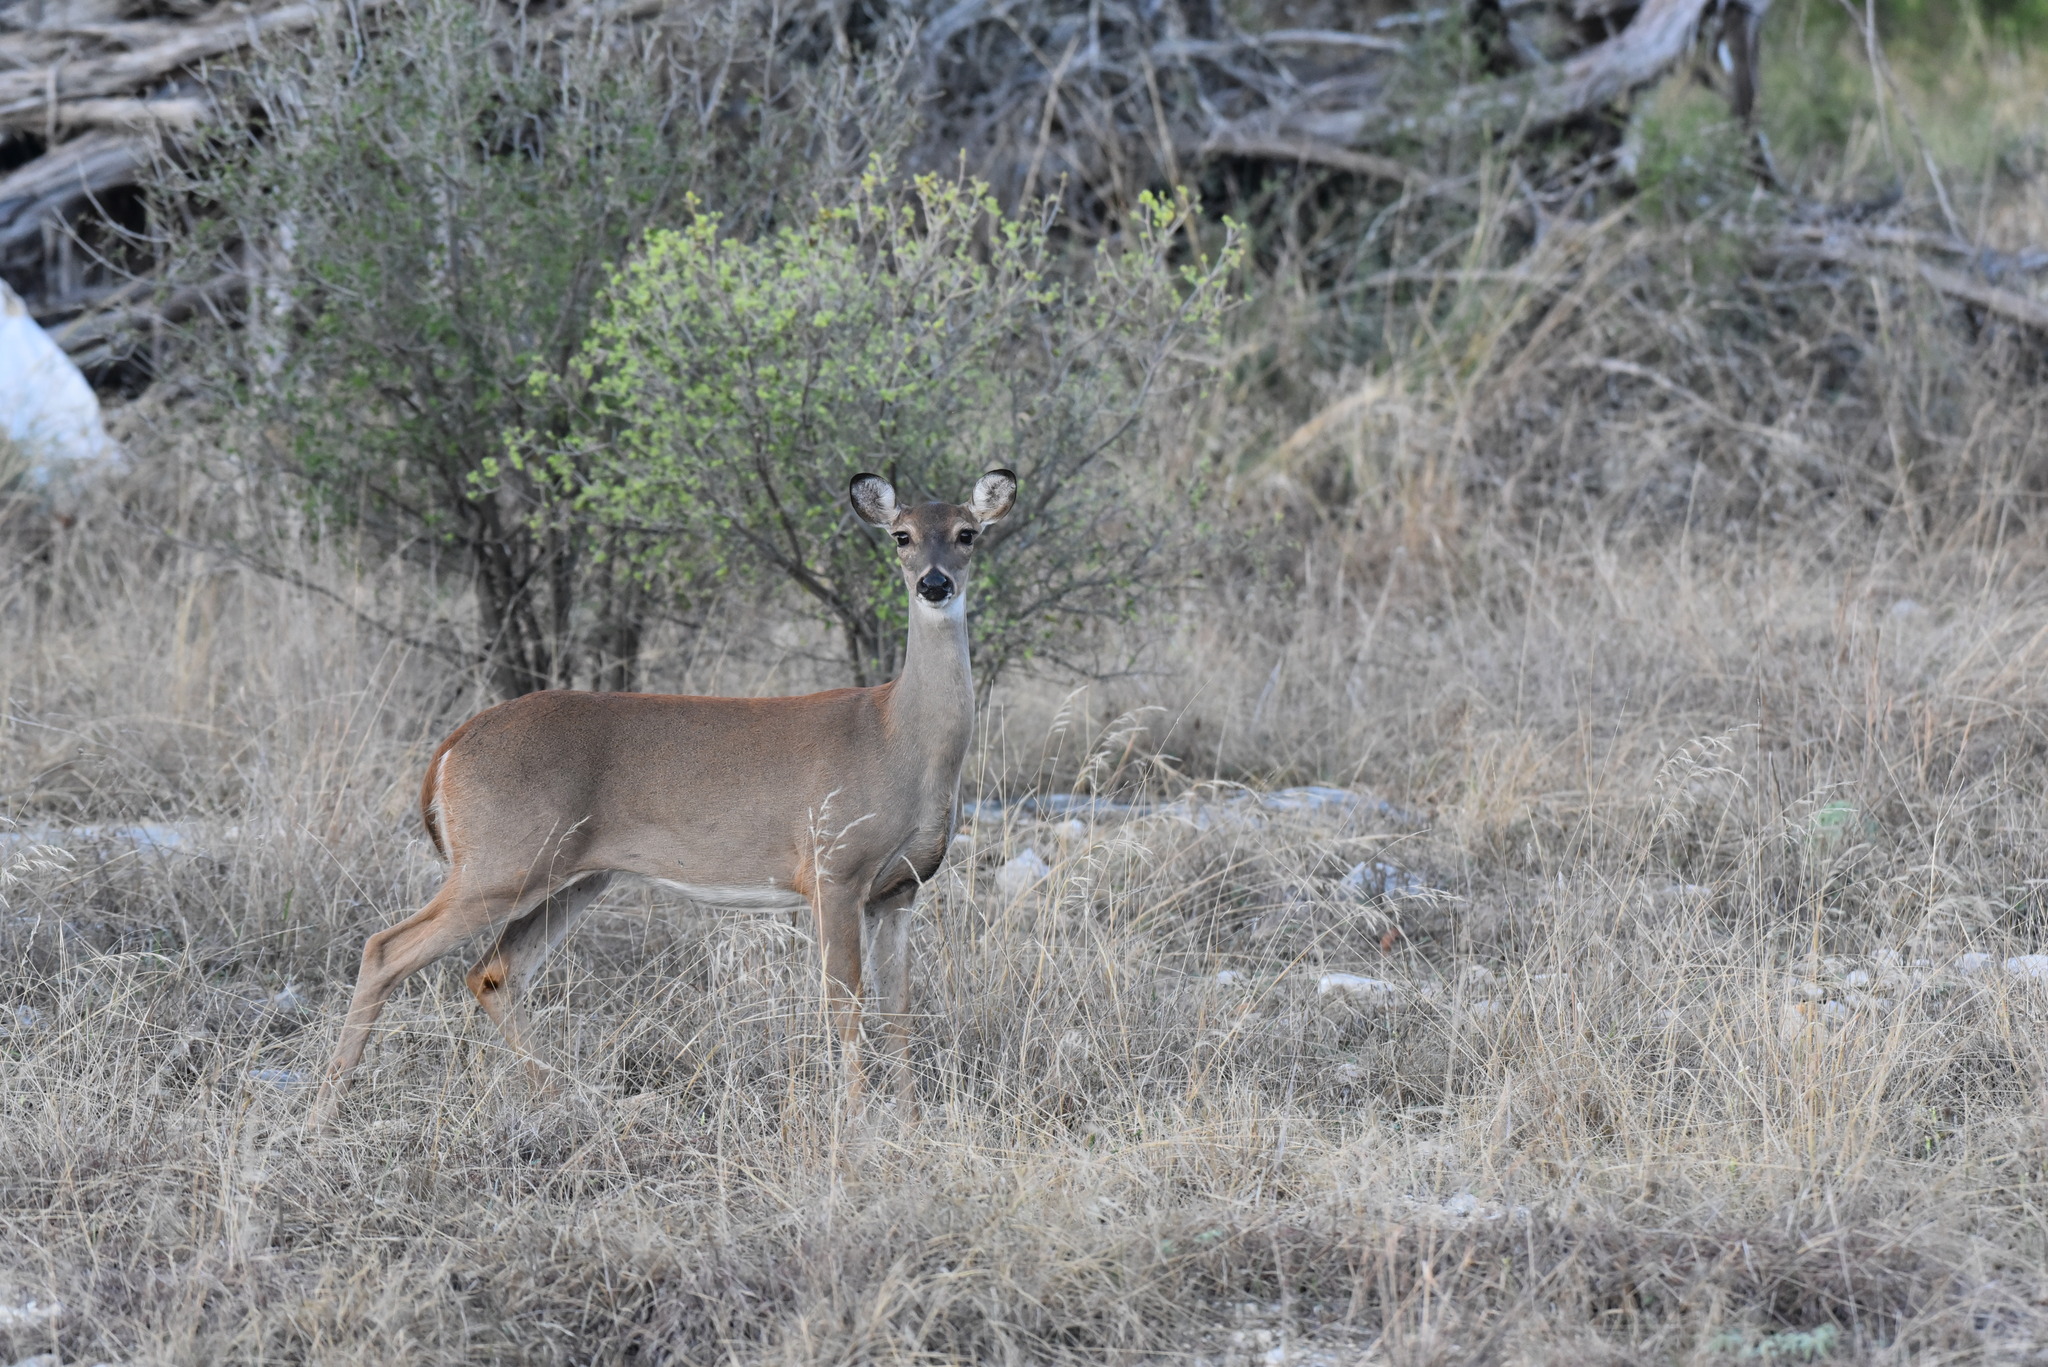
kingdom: Animalia
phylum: Chordata
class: Mammalia
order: Artiodactyla
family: Cervidae
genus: Odocoileus
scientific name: Odocoileus virginianus
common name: White-tailed deer
